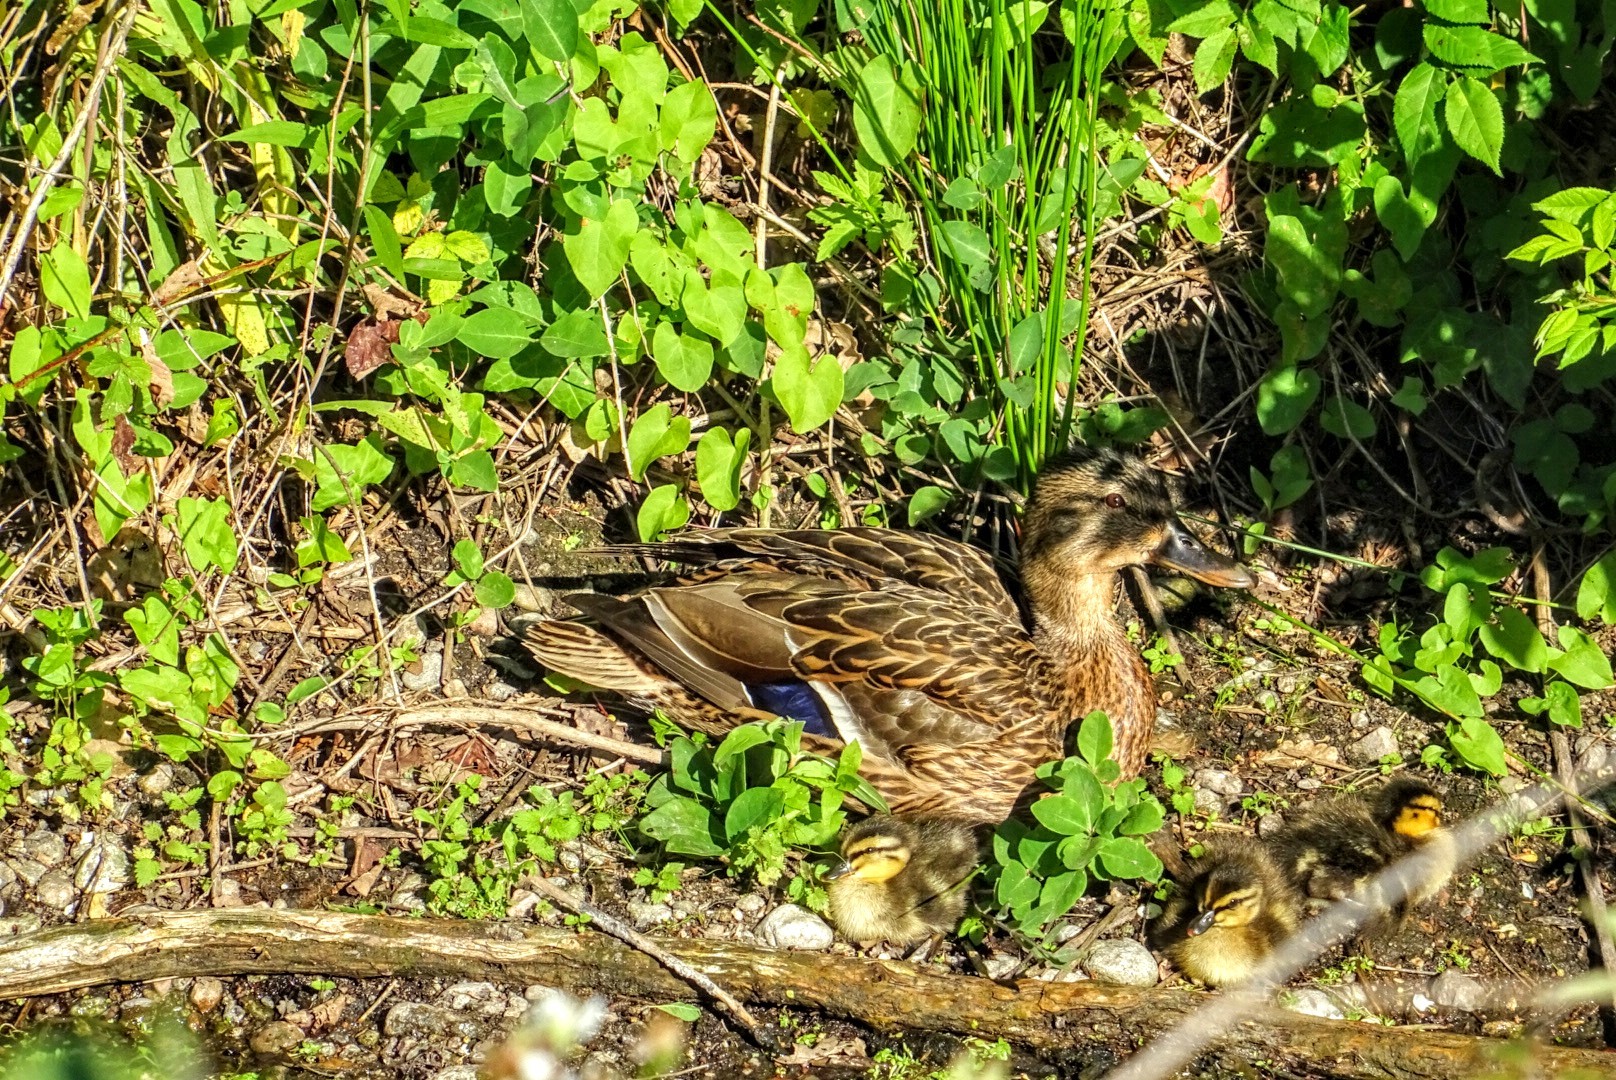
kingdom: Animalia
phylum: Chordata
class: Aves
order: Anseriformes
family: Anatidae
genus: Anas
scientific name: Anas platyrhynchos
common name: Mallard
